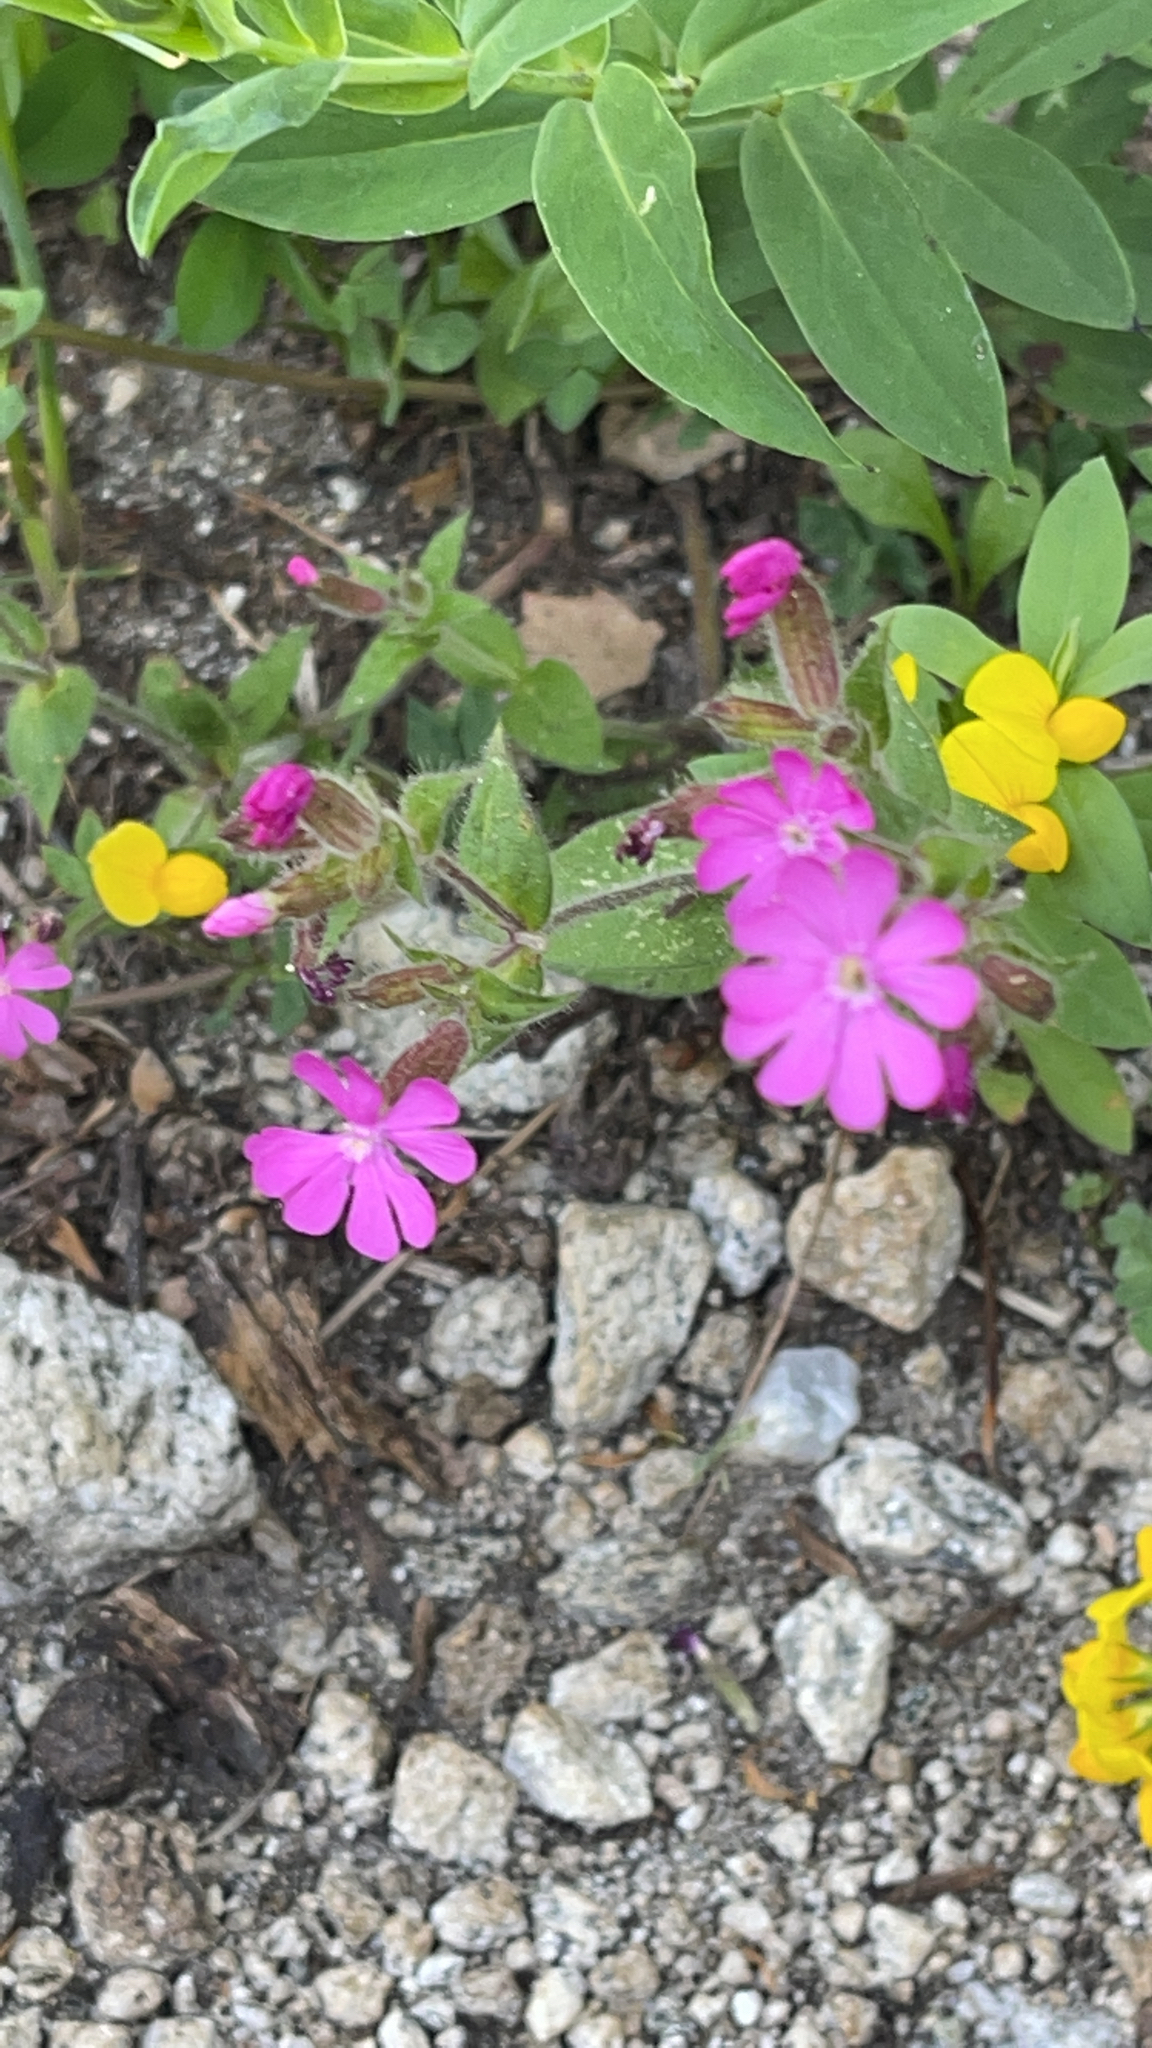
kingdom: Plantae
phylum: Tracheophyta
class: Magnoliopsida
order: Caryophyllales
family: Caryophyllaceae
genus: Silene
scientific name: Silene dioica
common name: Red campion
